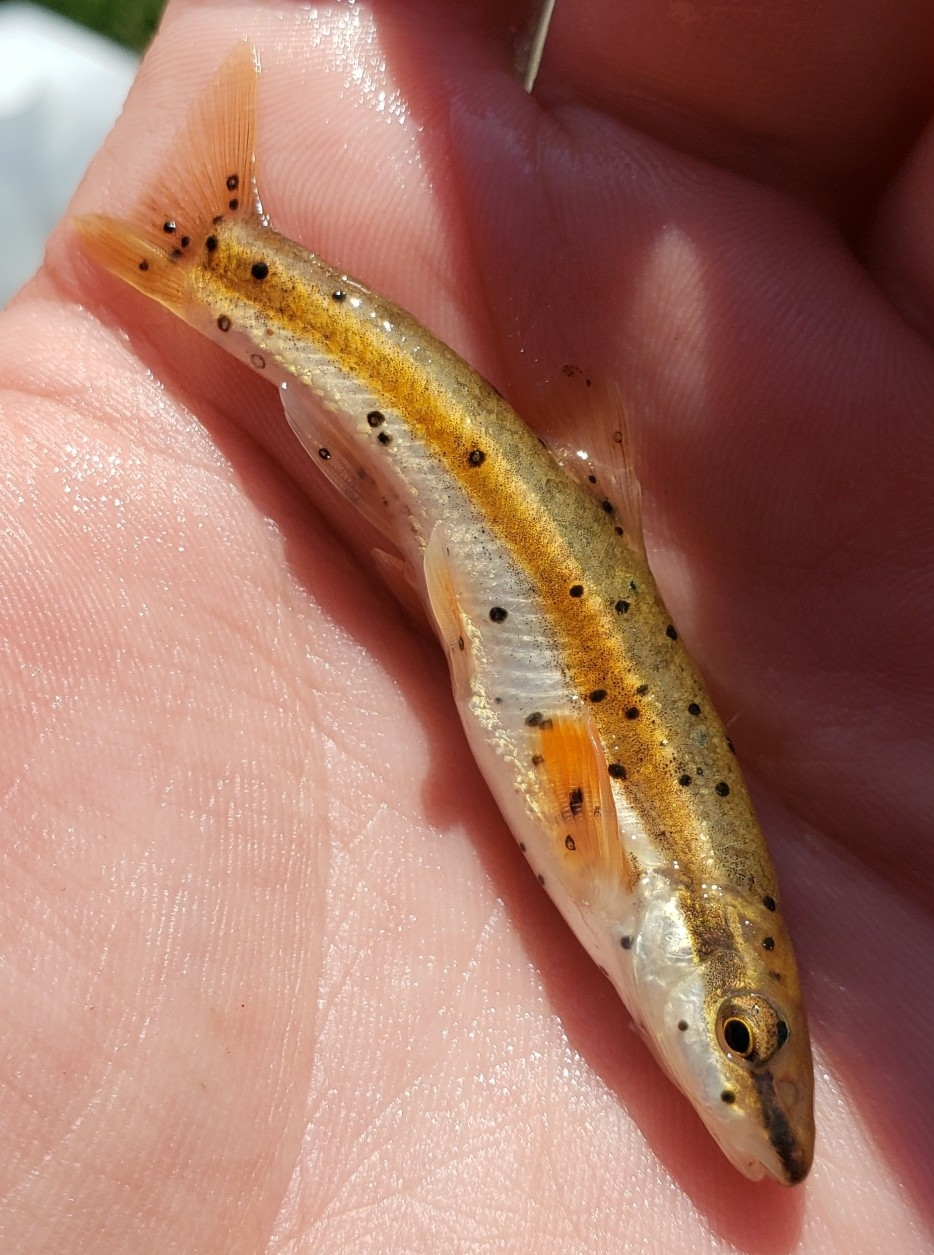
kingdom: Animalia
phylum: Chordata
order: Cypriniformes
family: Cyprinidae
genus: Rhinichthys
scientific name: Rhinichthys atratulus
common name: Eastern blacknose dace
